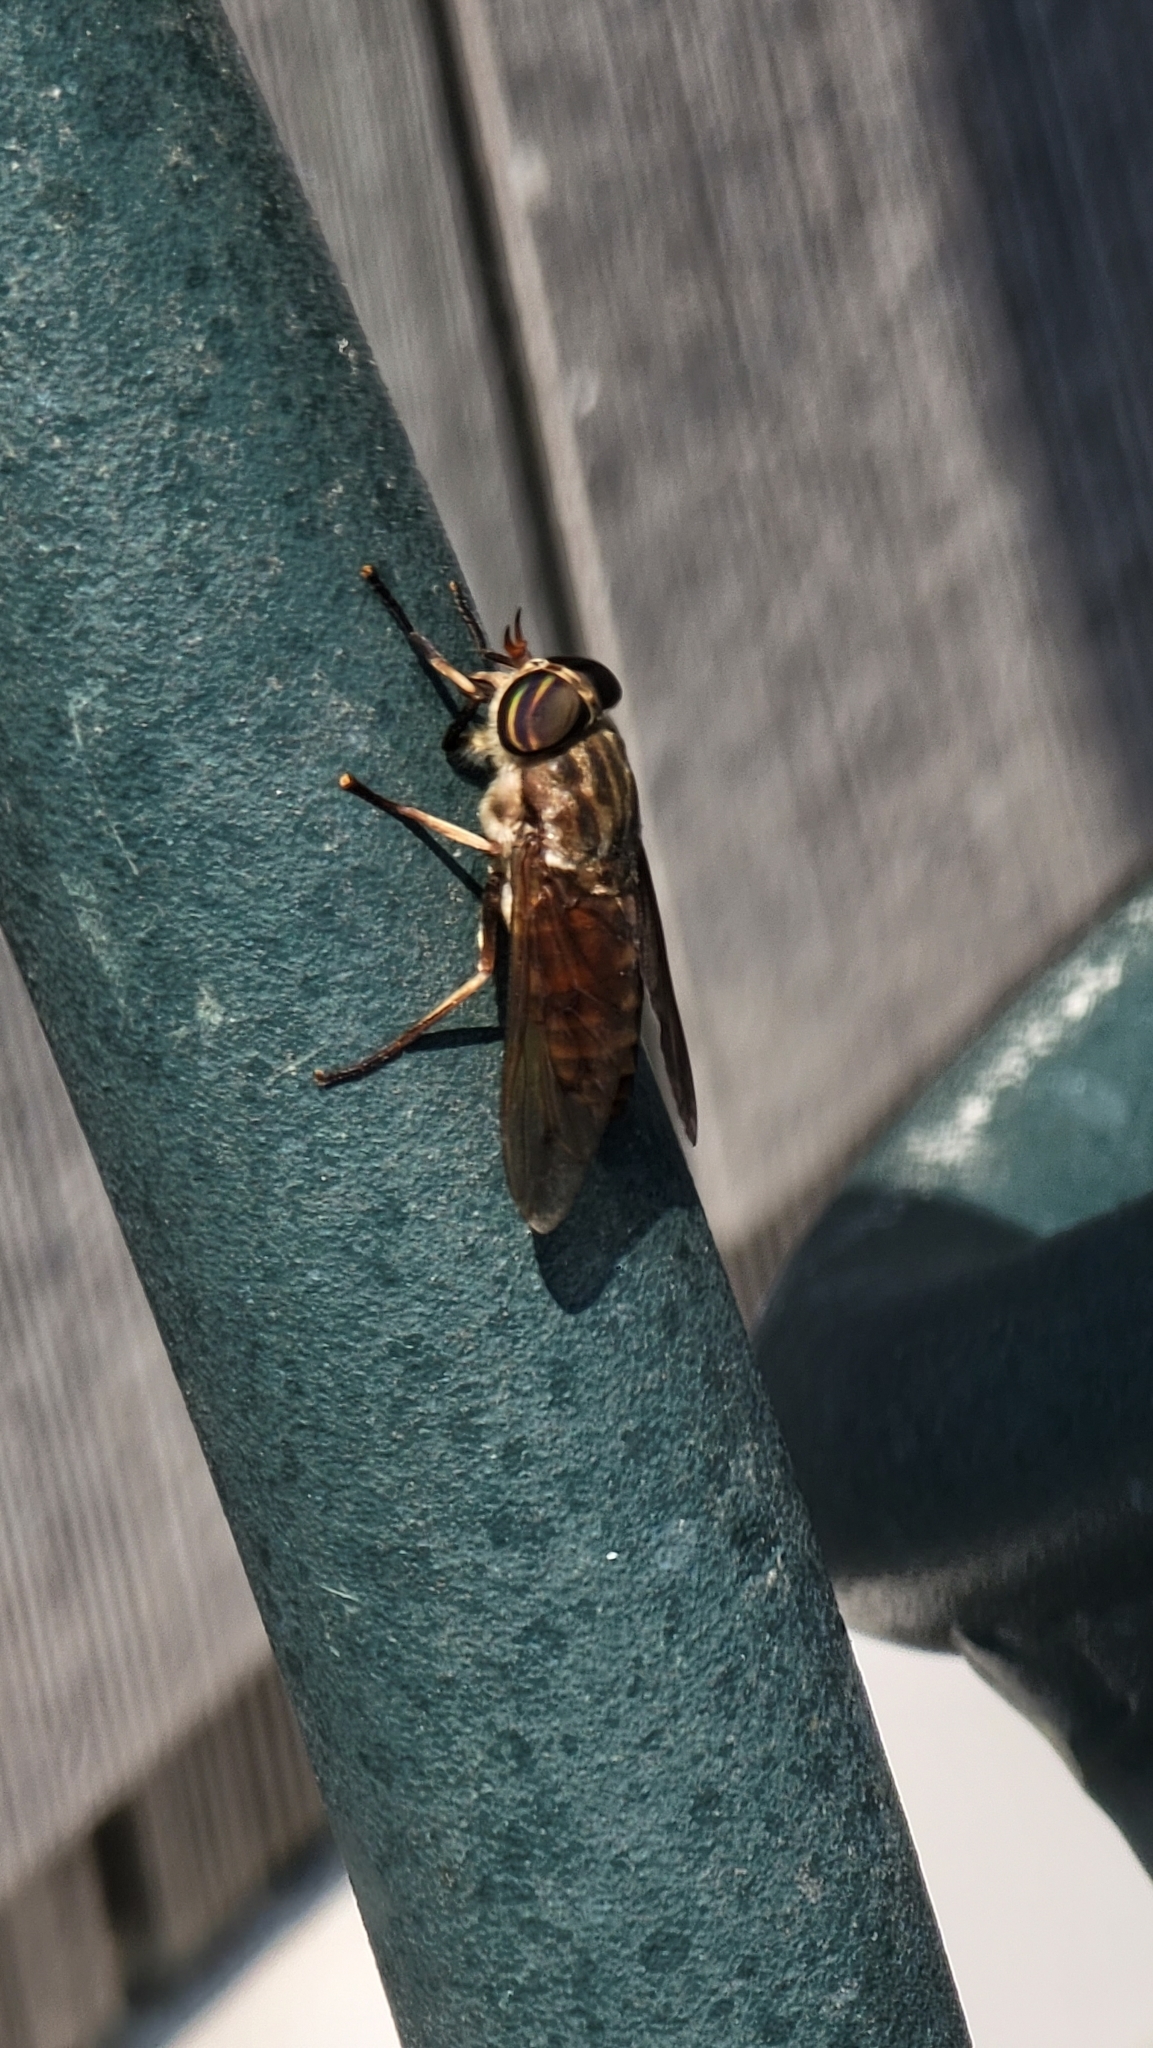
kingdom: Animalia
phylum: Arthropoda
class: Insecta
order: Diptera
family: Tabanidae
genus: Tabanus
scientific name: Tabanus lineola
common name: Striped horse fly
